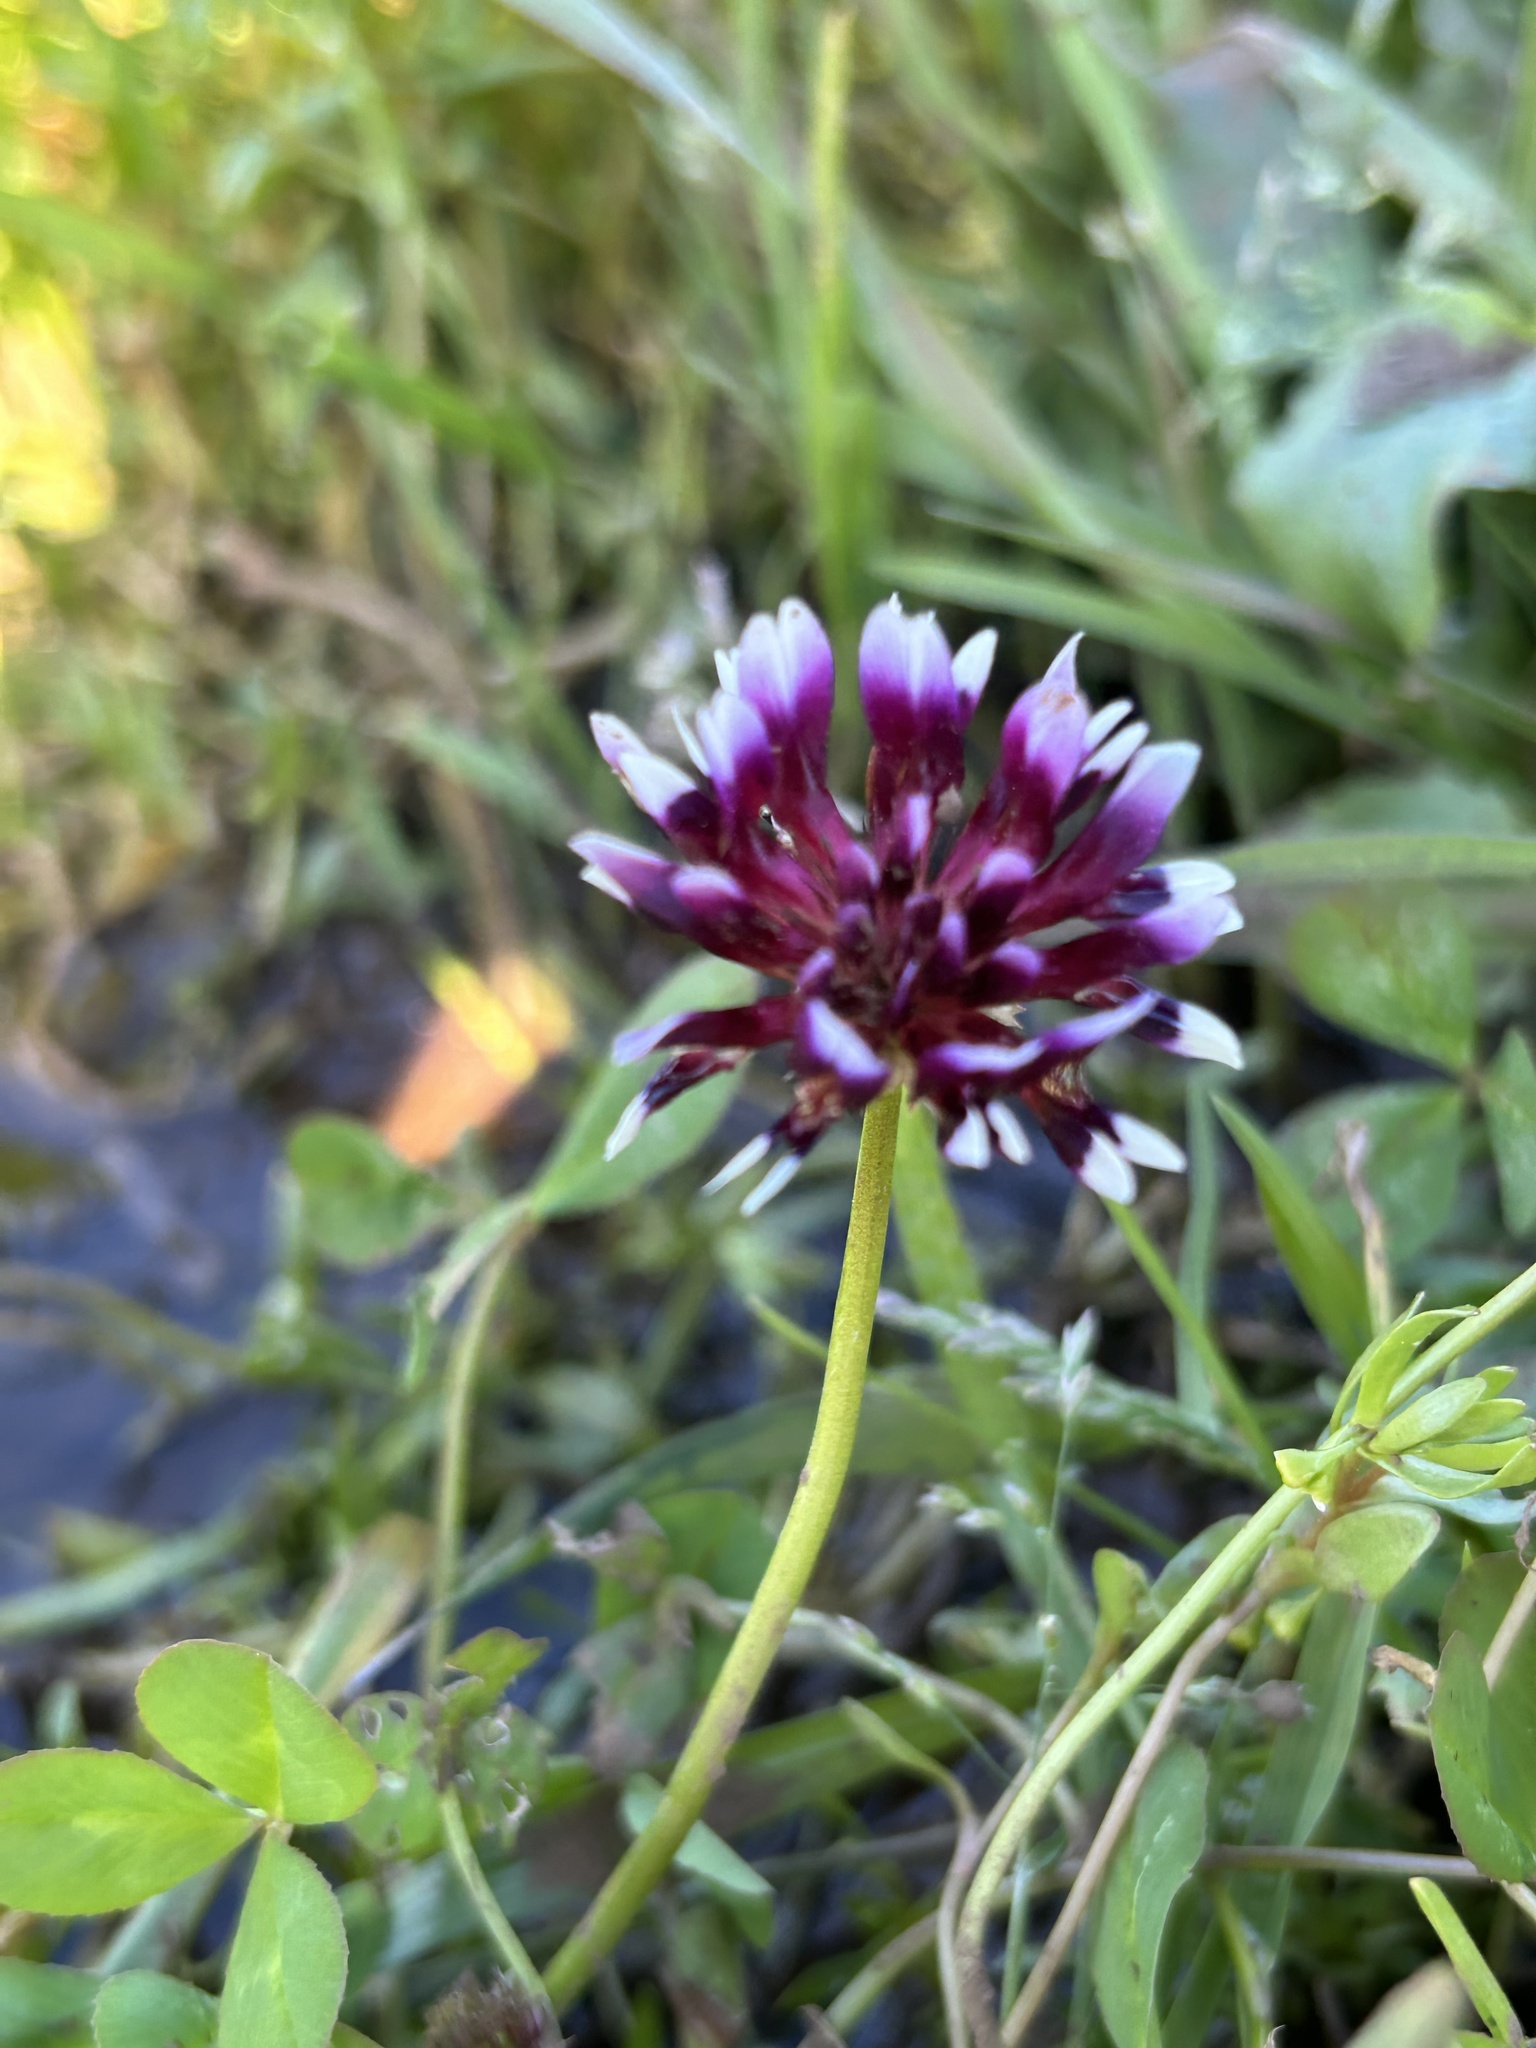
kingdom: Plantae
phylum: Tracheophyta
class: Magnoliopsida
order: Fabales
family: Fabaceae
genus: Trifolium
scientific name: Trifolium variegatum
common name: Whitetip clover
